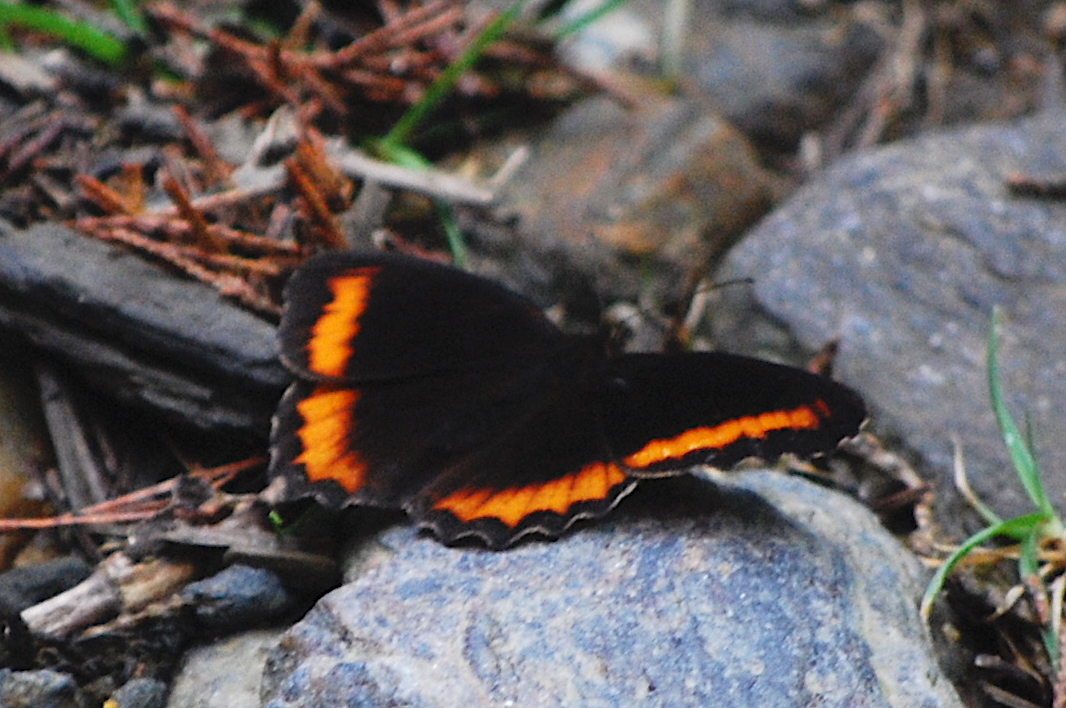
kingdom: Animalia
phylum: Arthropoda
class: Insecta
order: Lepidoptera
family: Nymphalidae
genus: Pedaliodes
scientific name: Pedaliodes
